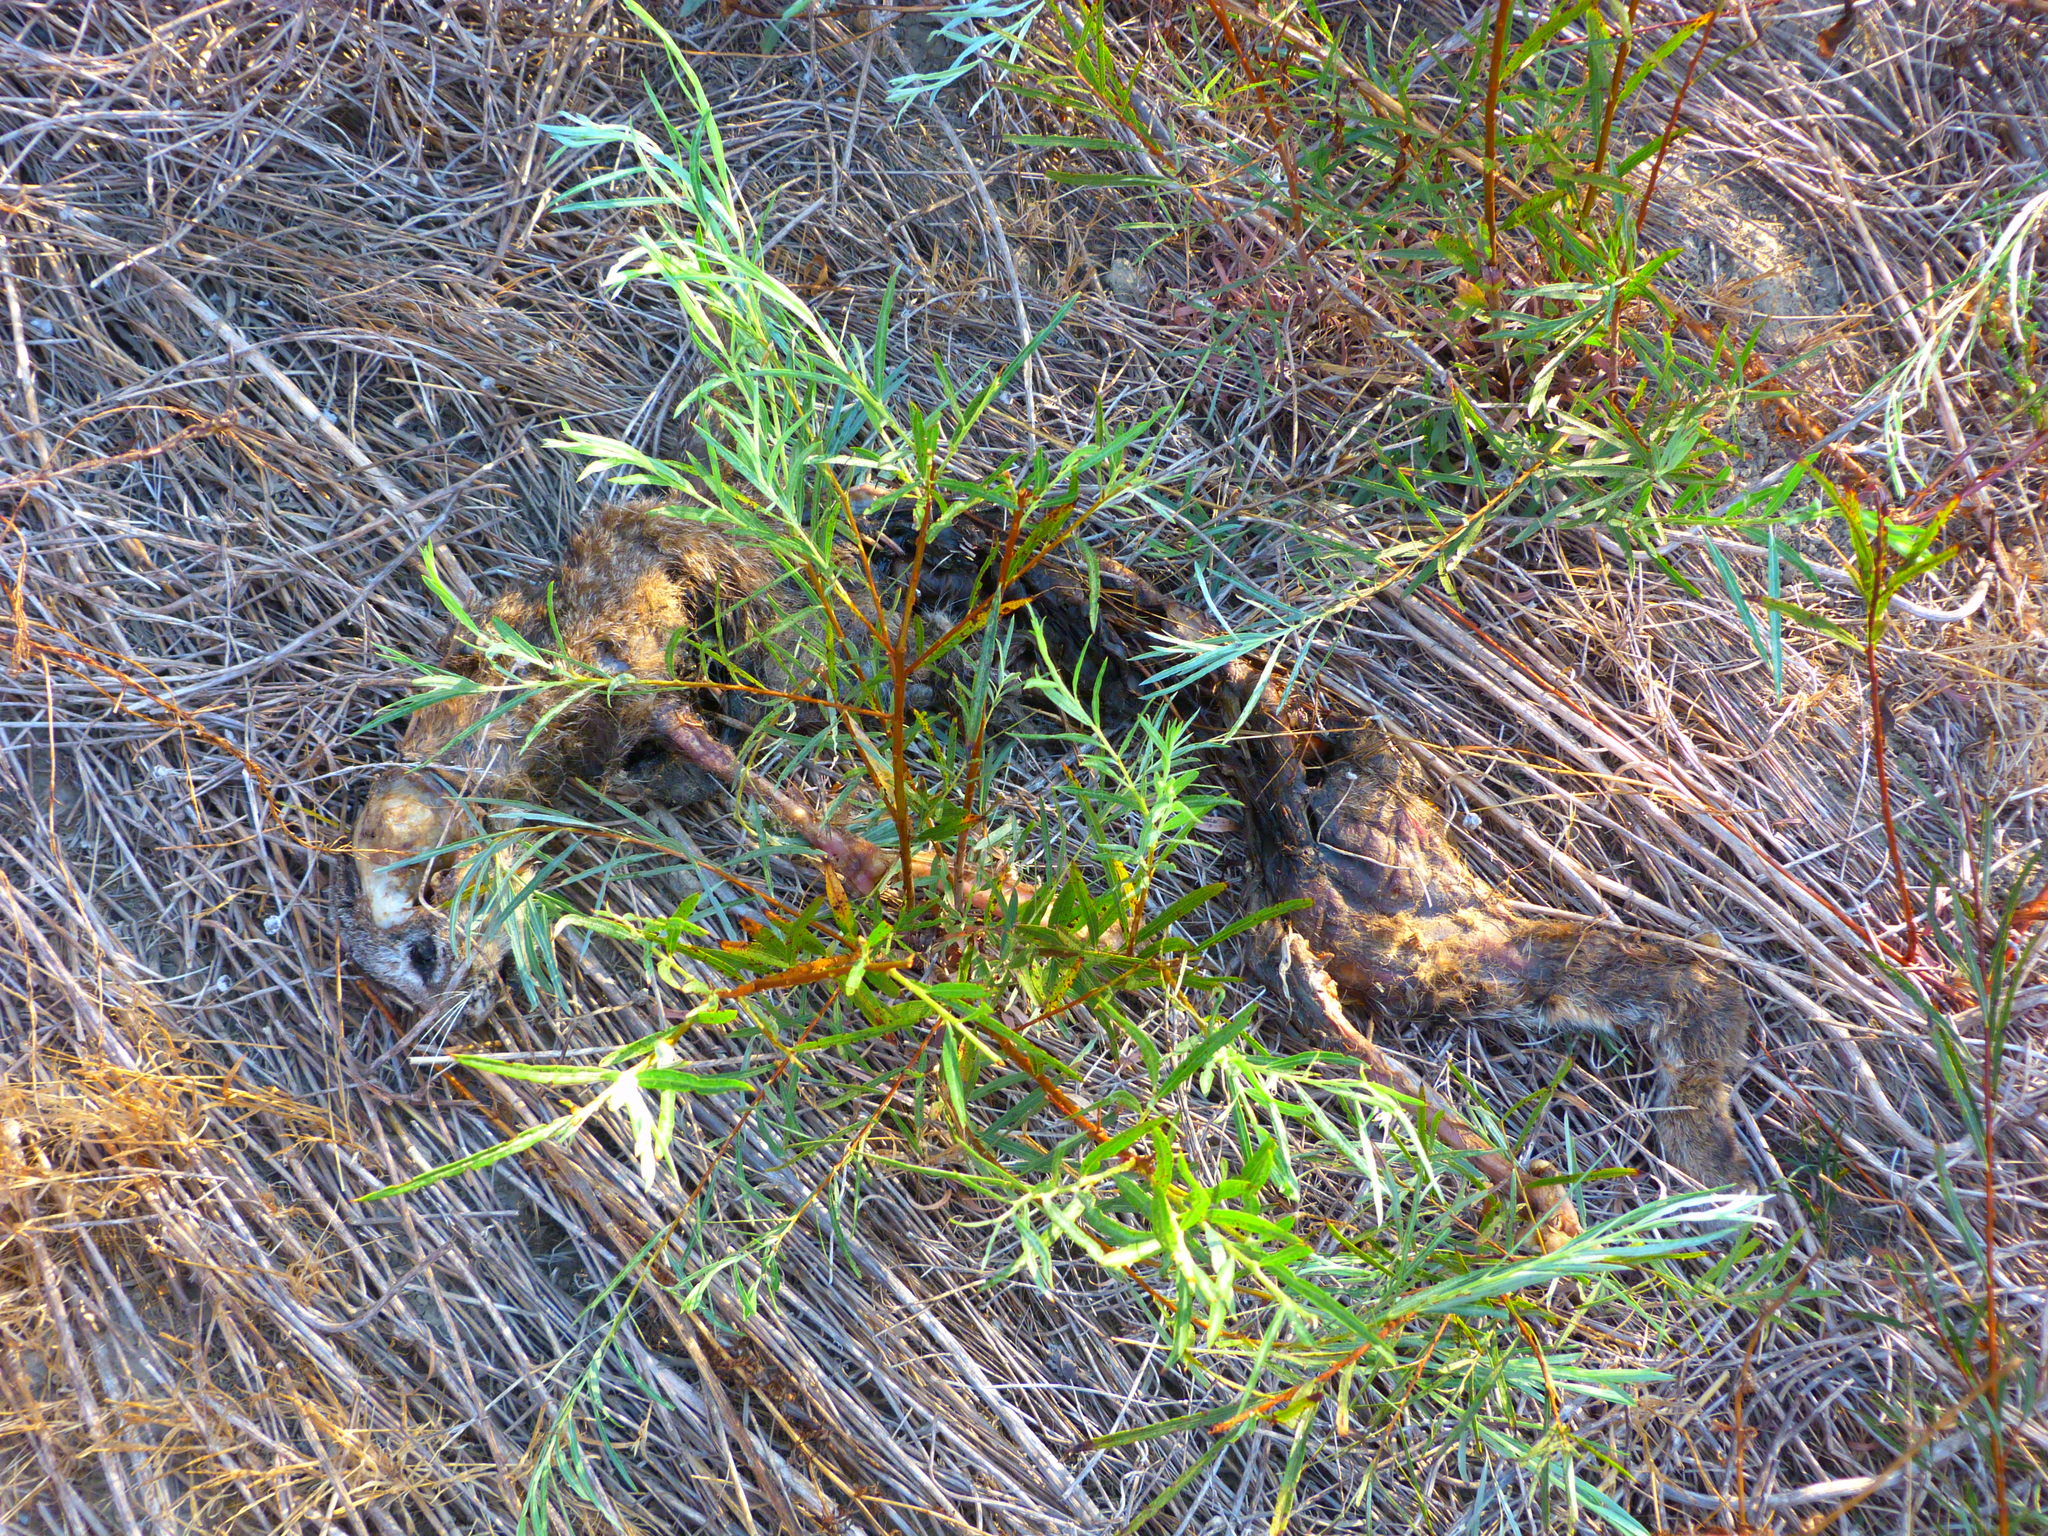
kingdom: Animalia
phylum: Chordata
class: Mammalia
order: Carnivora
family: Felidae
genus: Lynx
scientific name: Lynx rufus
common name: Bobcat
